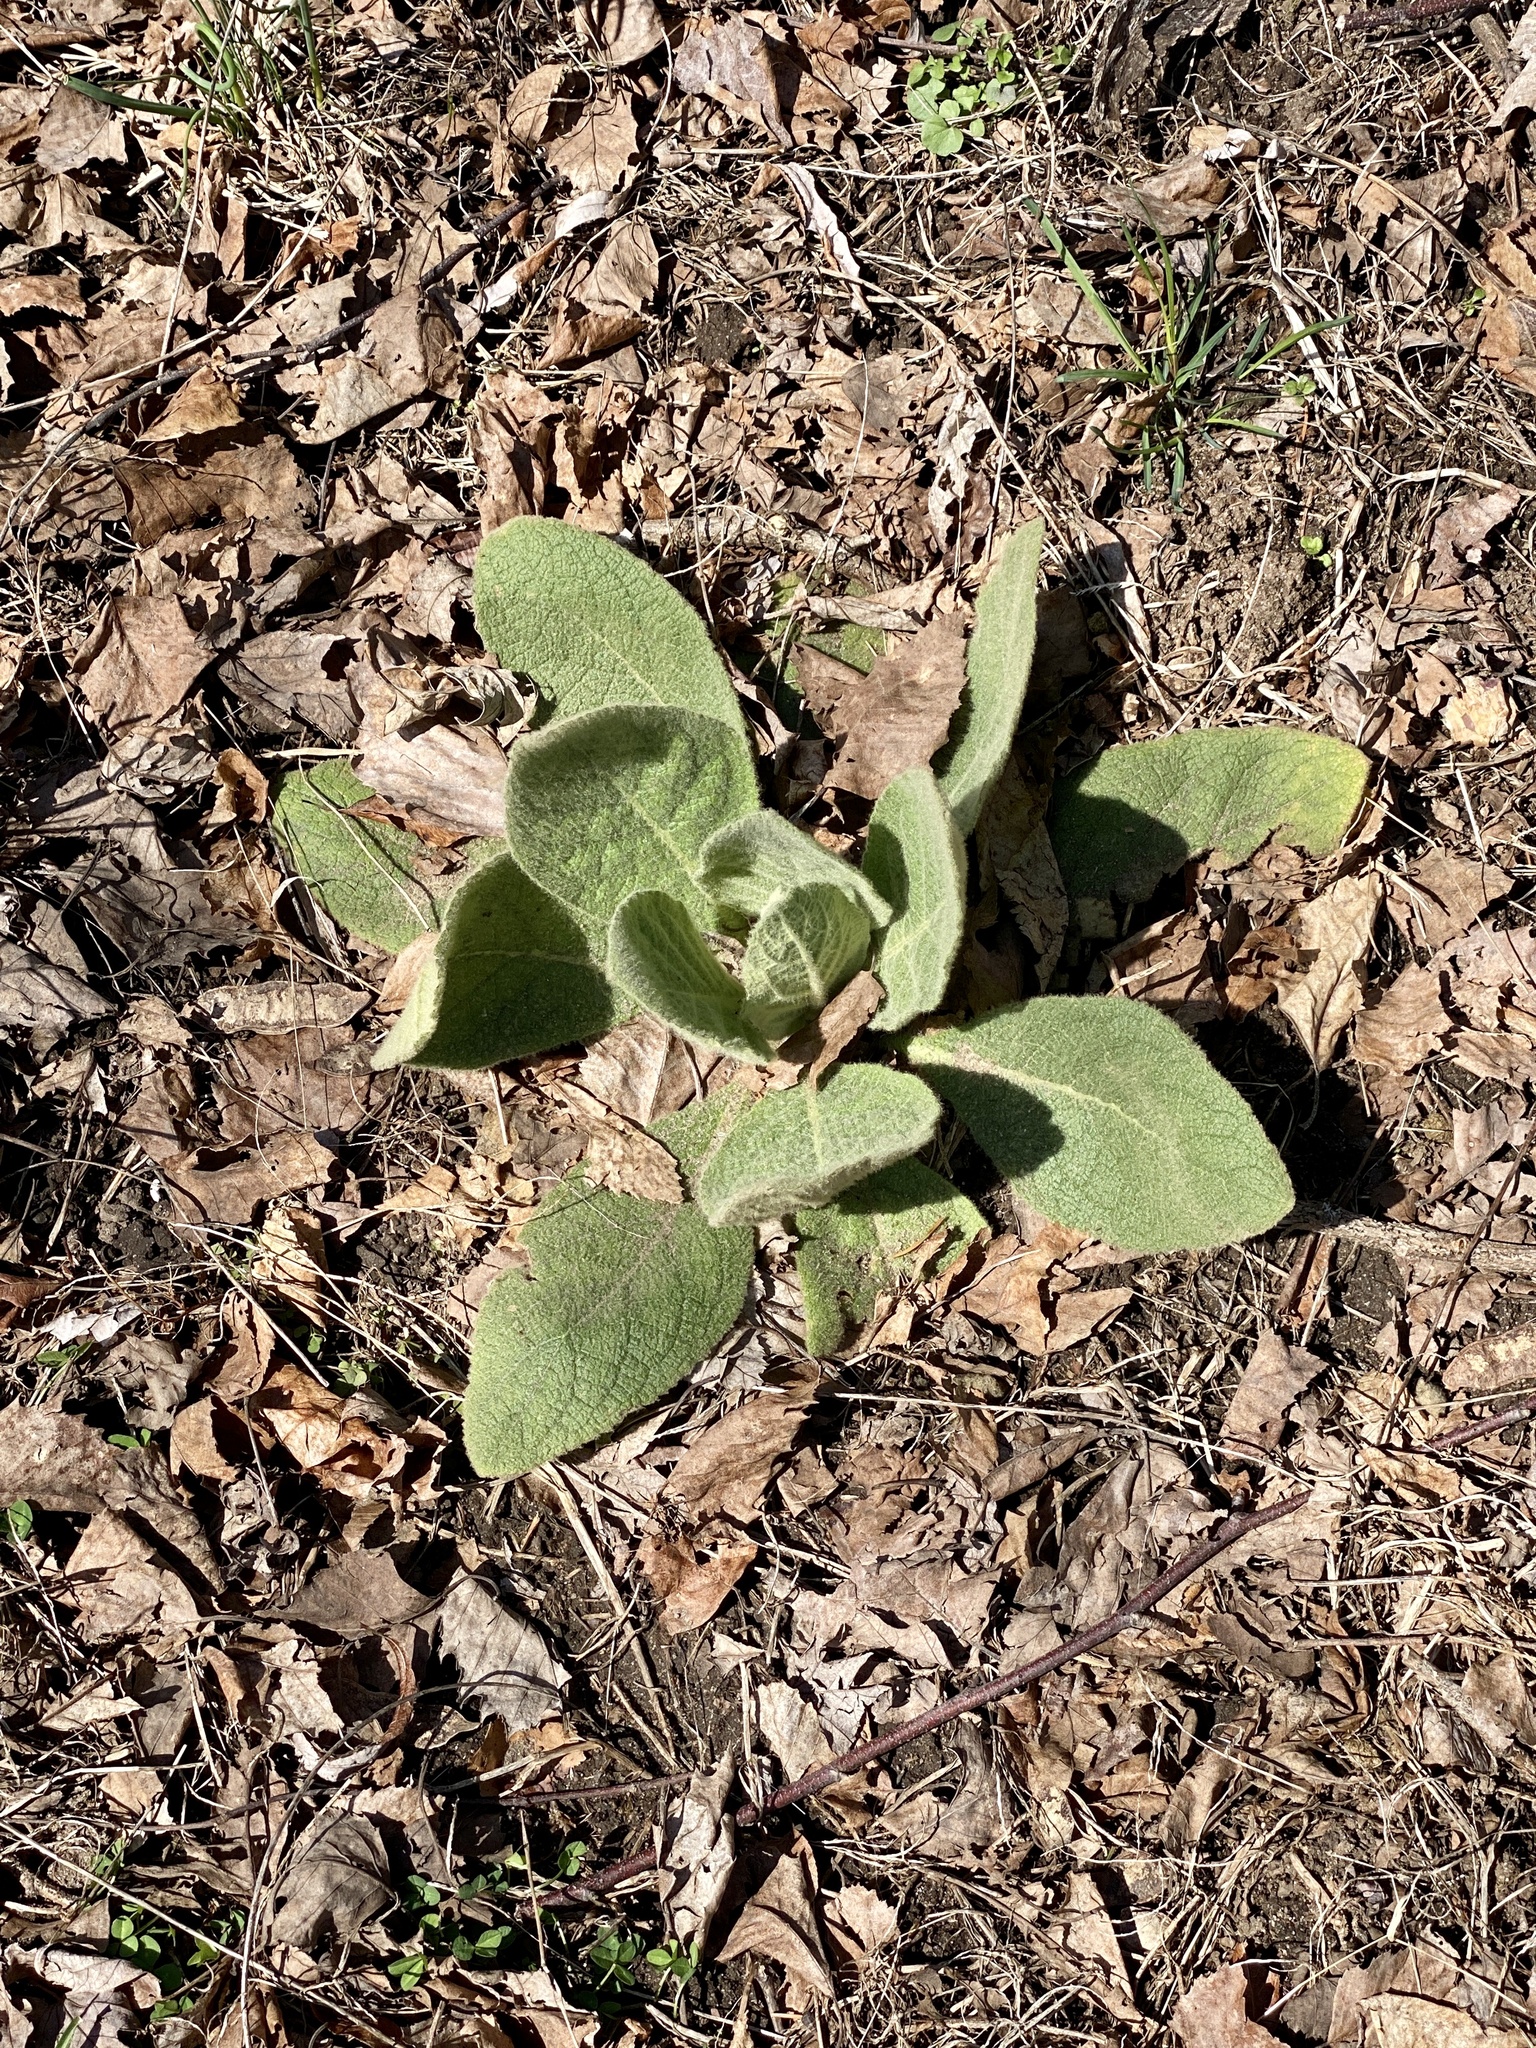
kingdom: Plantae
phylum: Tracheophyta
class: Magnoliopsida
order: Lamiales
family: Scrophulariaceae
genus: Verbascum
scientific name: Verbascum thapsus
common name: Common mullein
